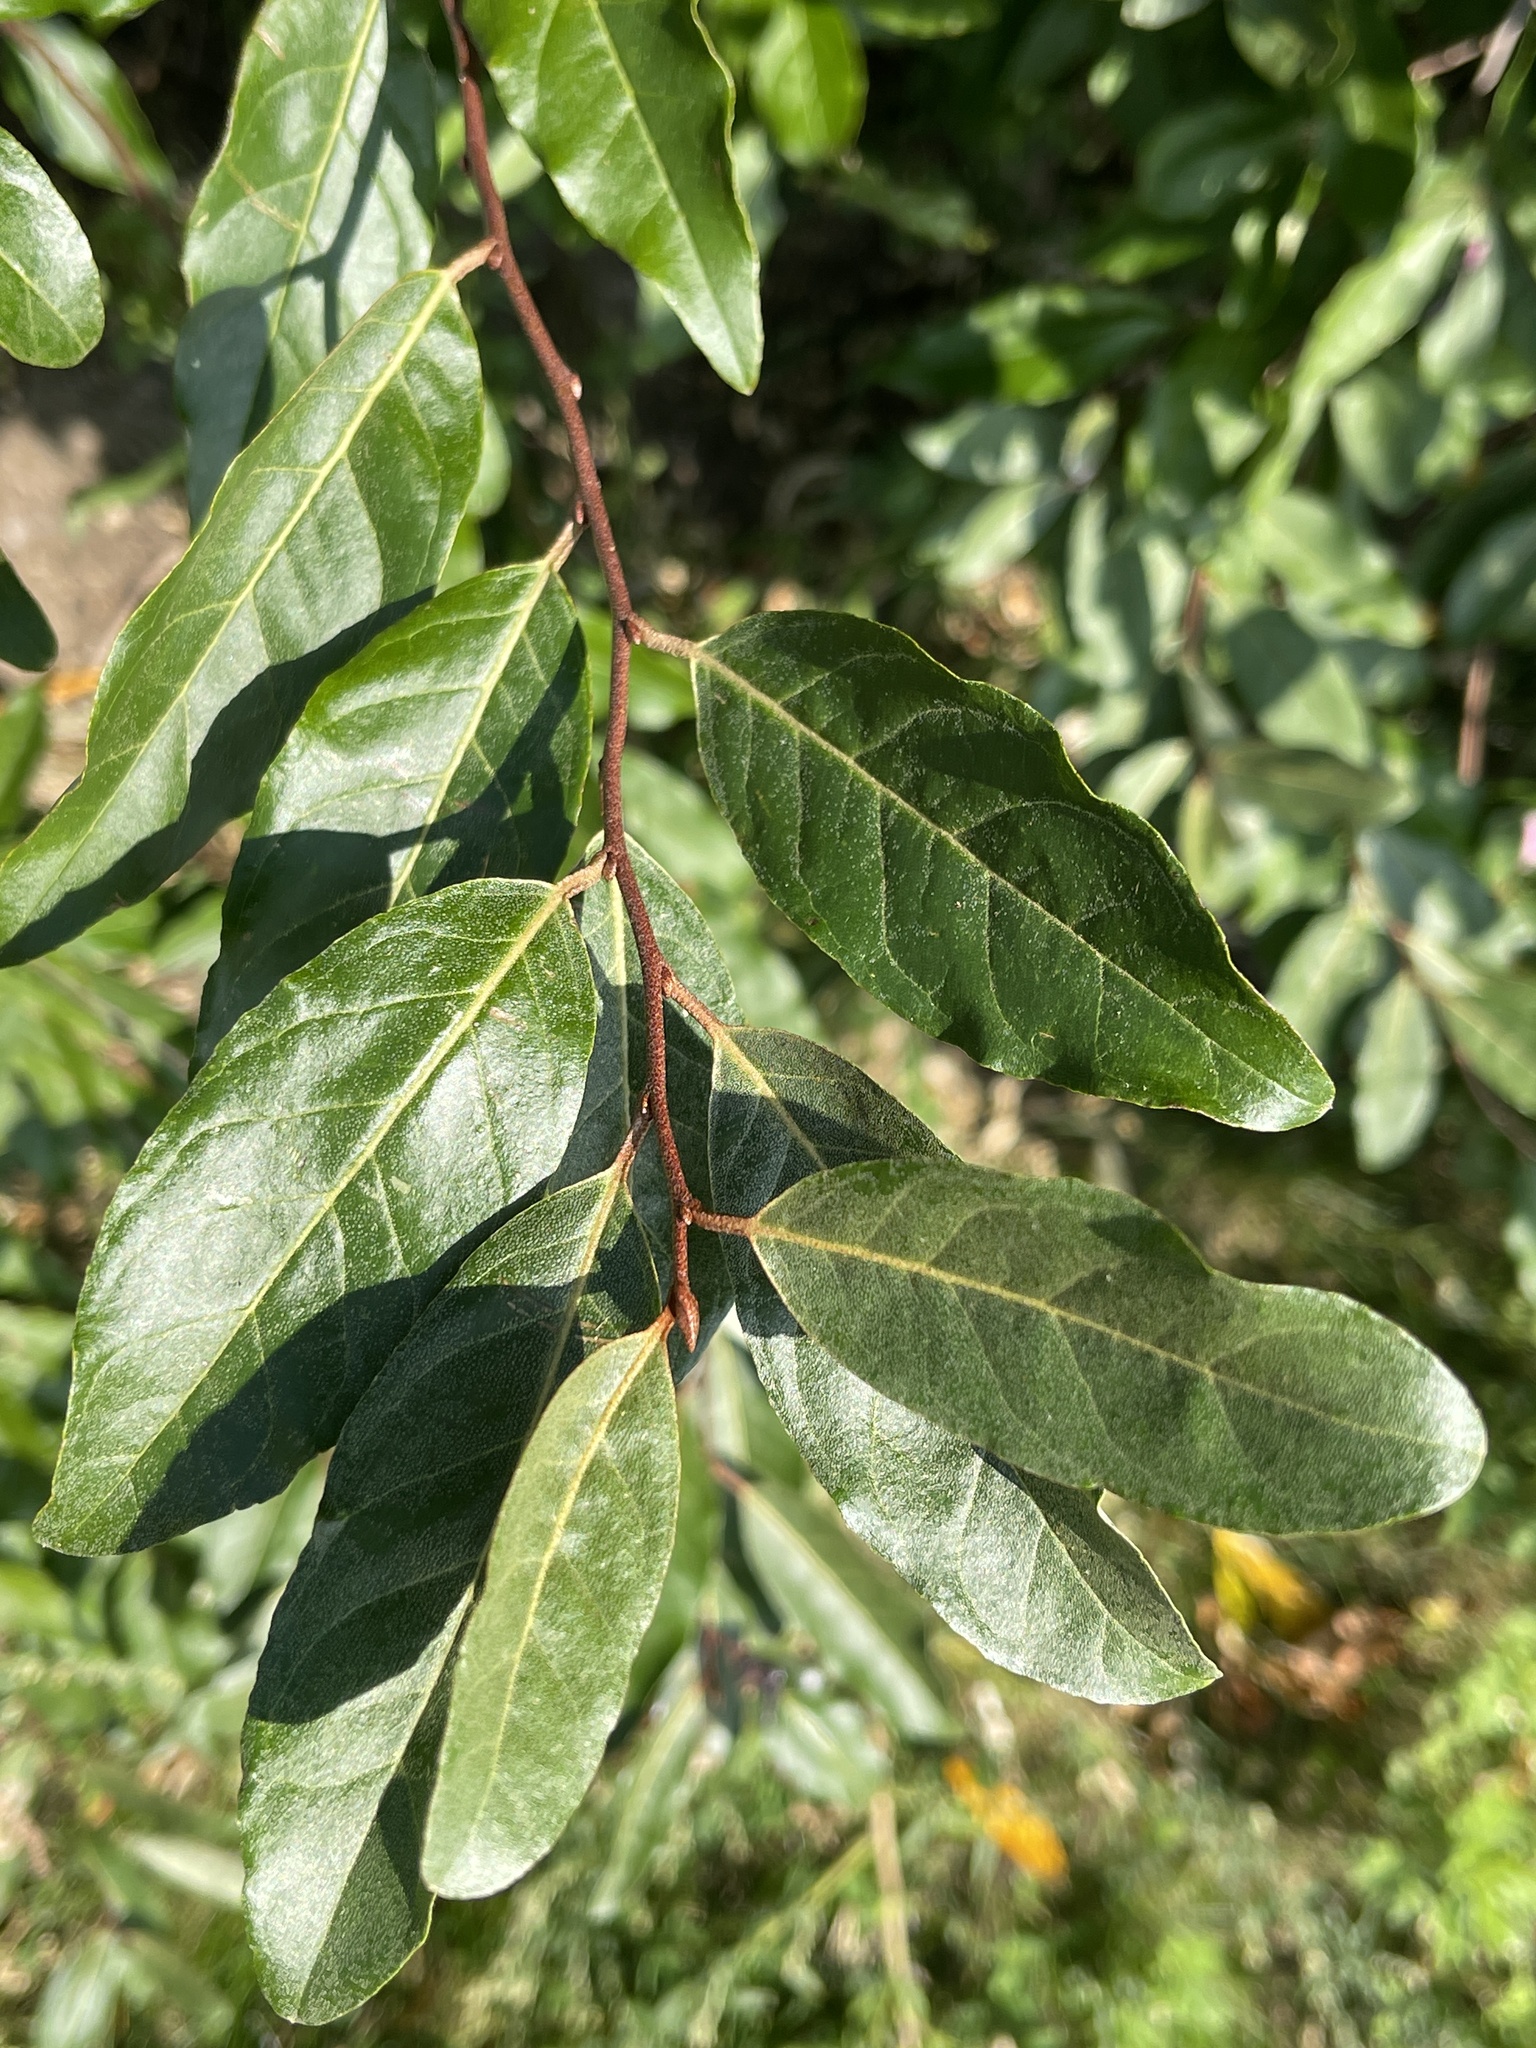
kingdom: Plantae
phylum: Tracheophyta
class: Magnoliopsida
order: Rosales
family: Elaeagnaceae
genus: Elaeagnus
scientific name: Elaeagnus umbellata
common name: Autumn olive
